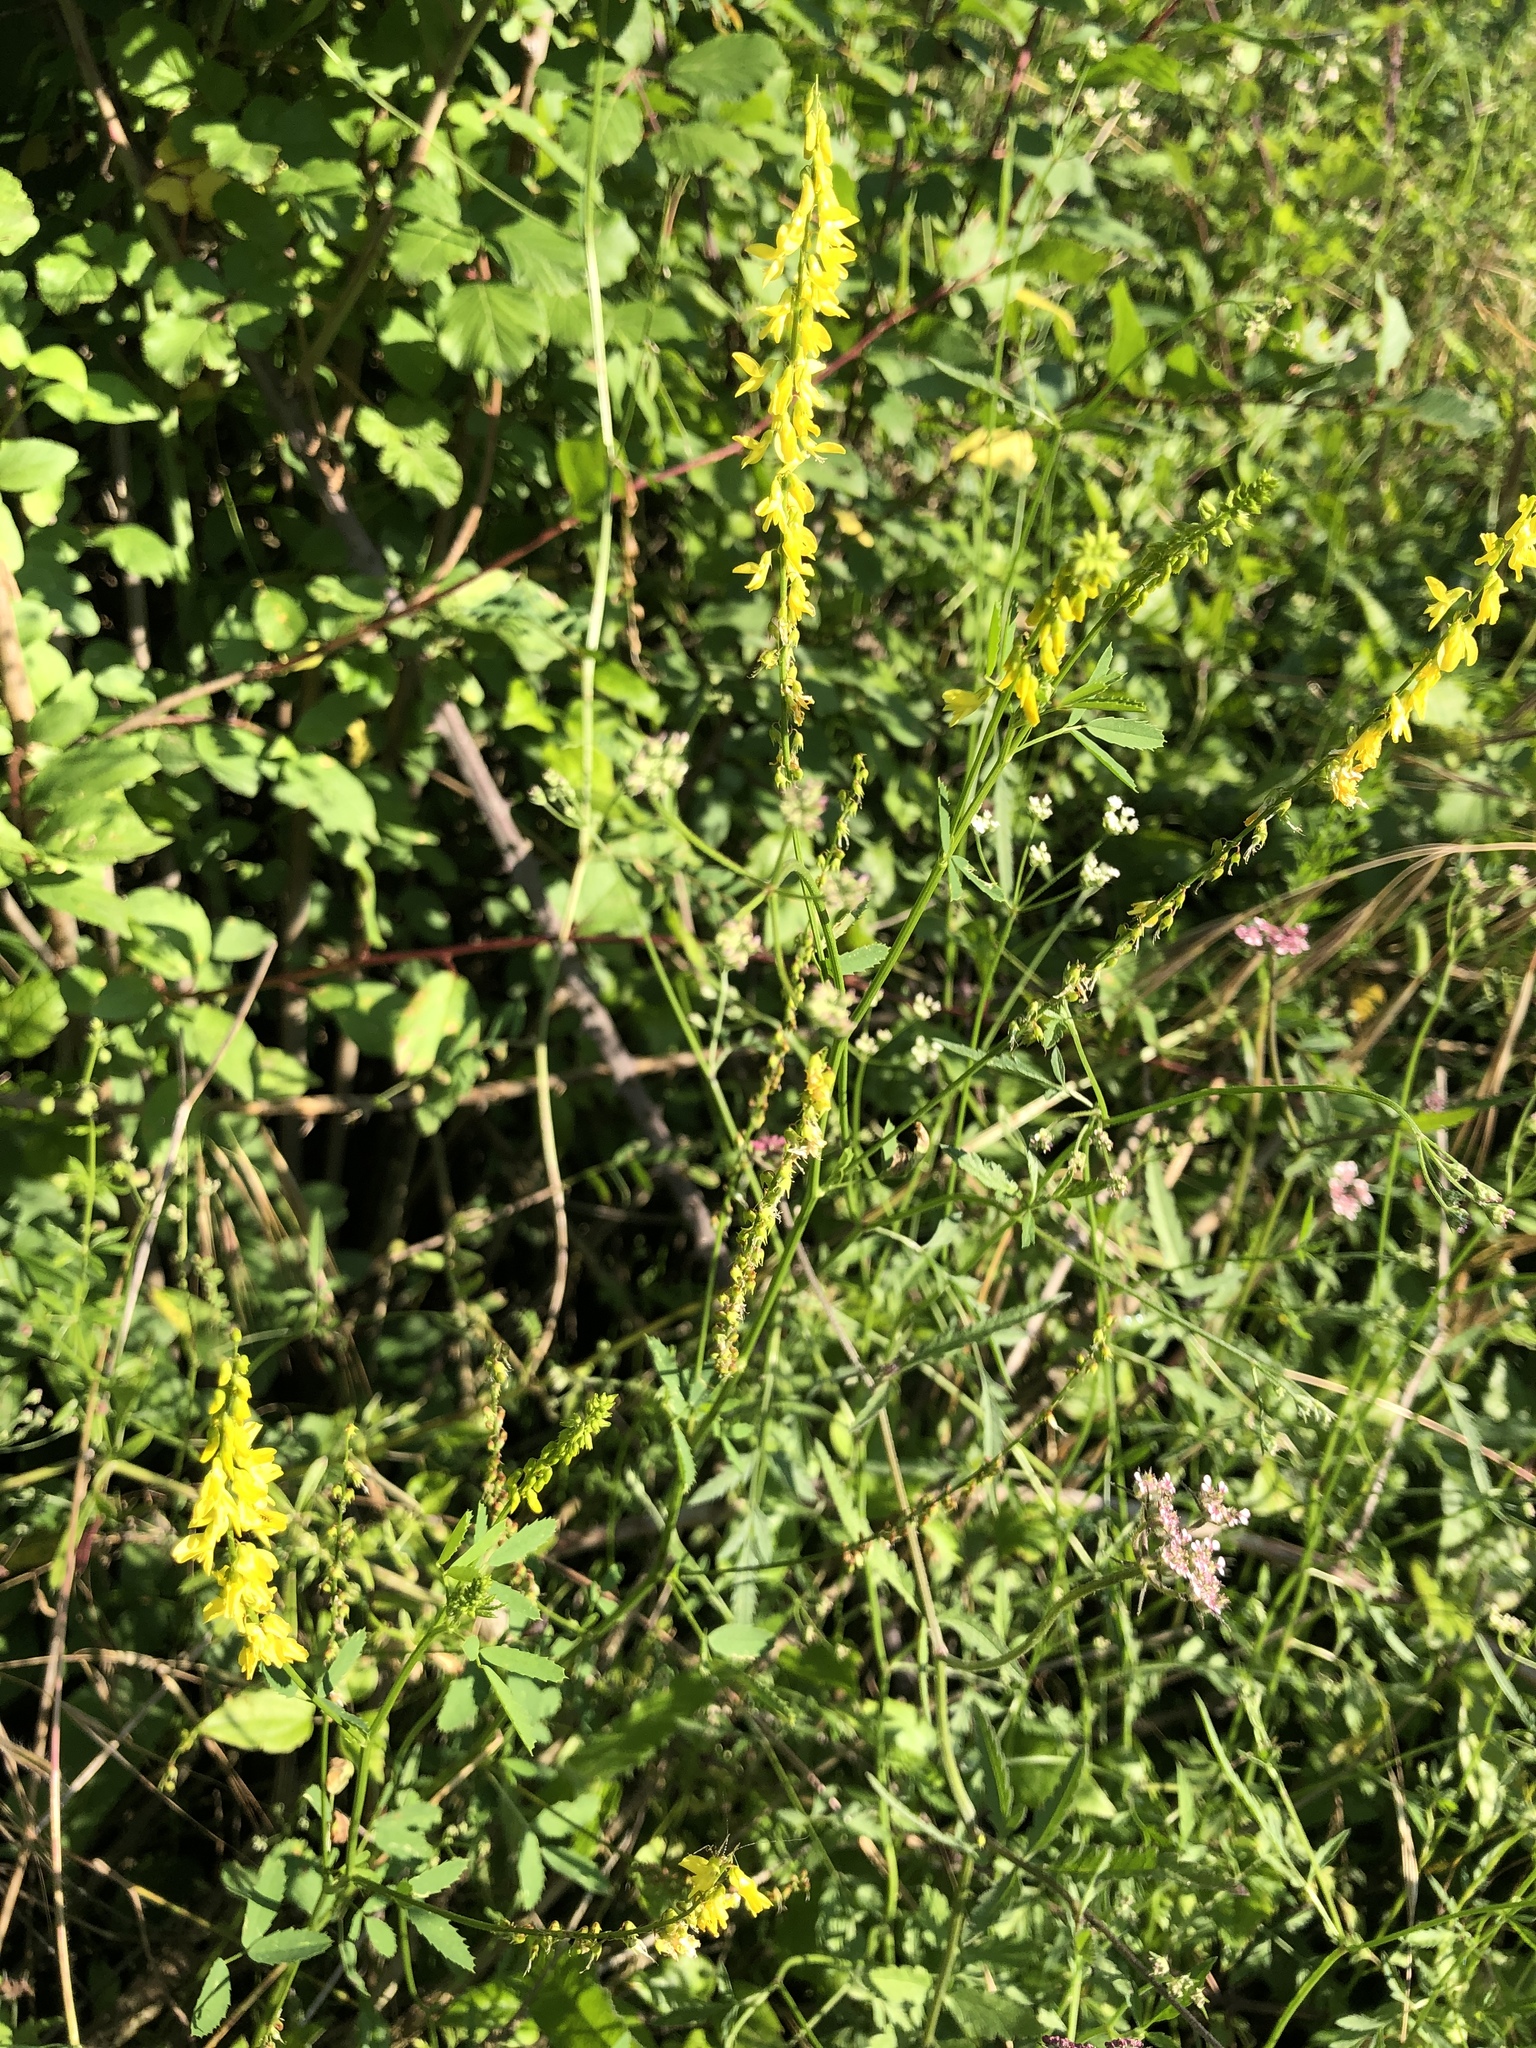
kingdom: Plantae
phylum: Tracheophyta
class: Magnoliopsida
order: Fabales
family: Fabaceae
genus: Melilotus
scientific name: Melilotus officinalis
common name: Sweetclover
